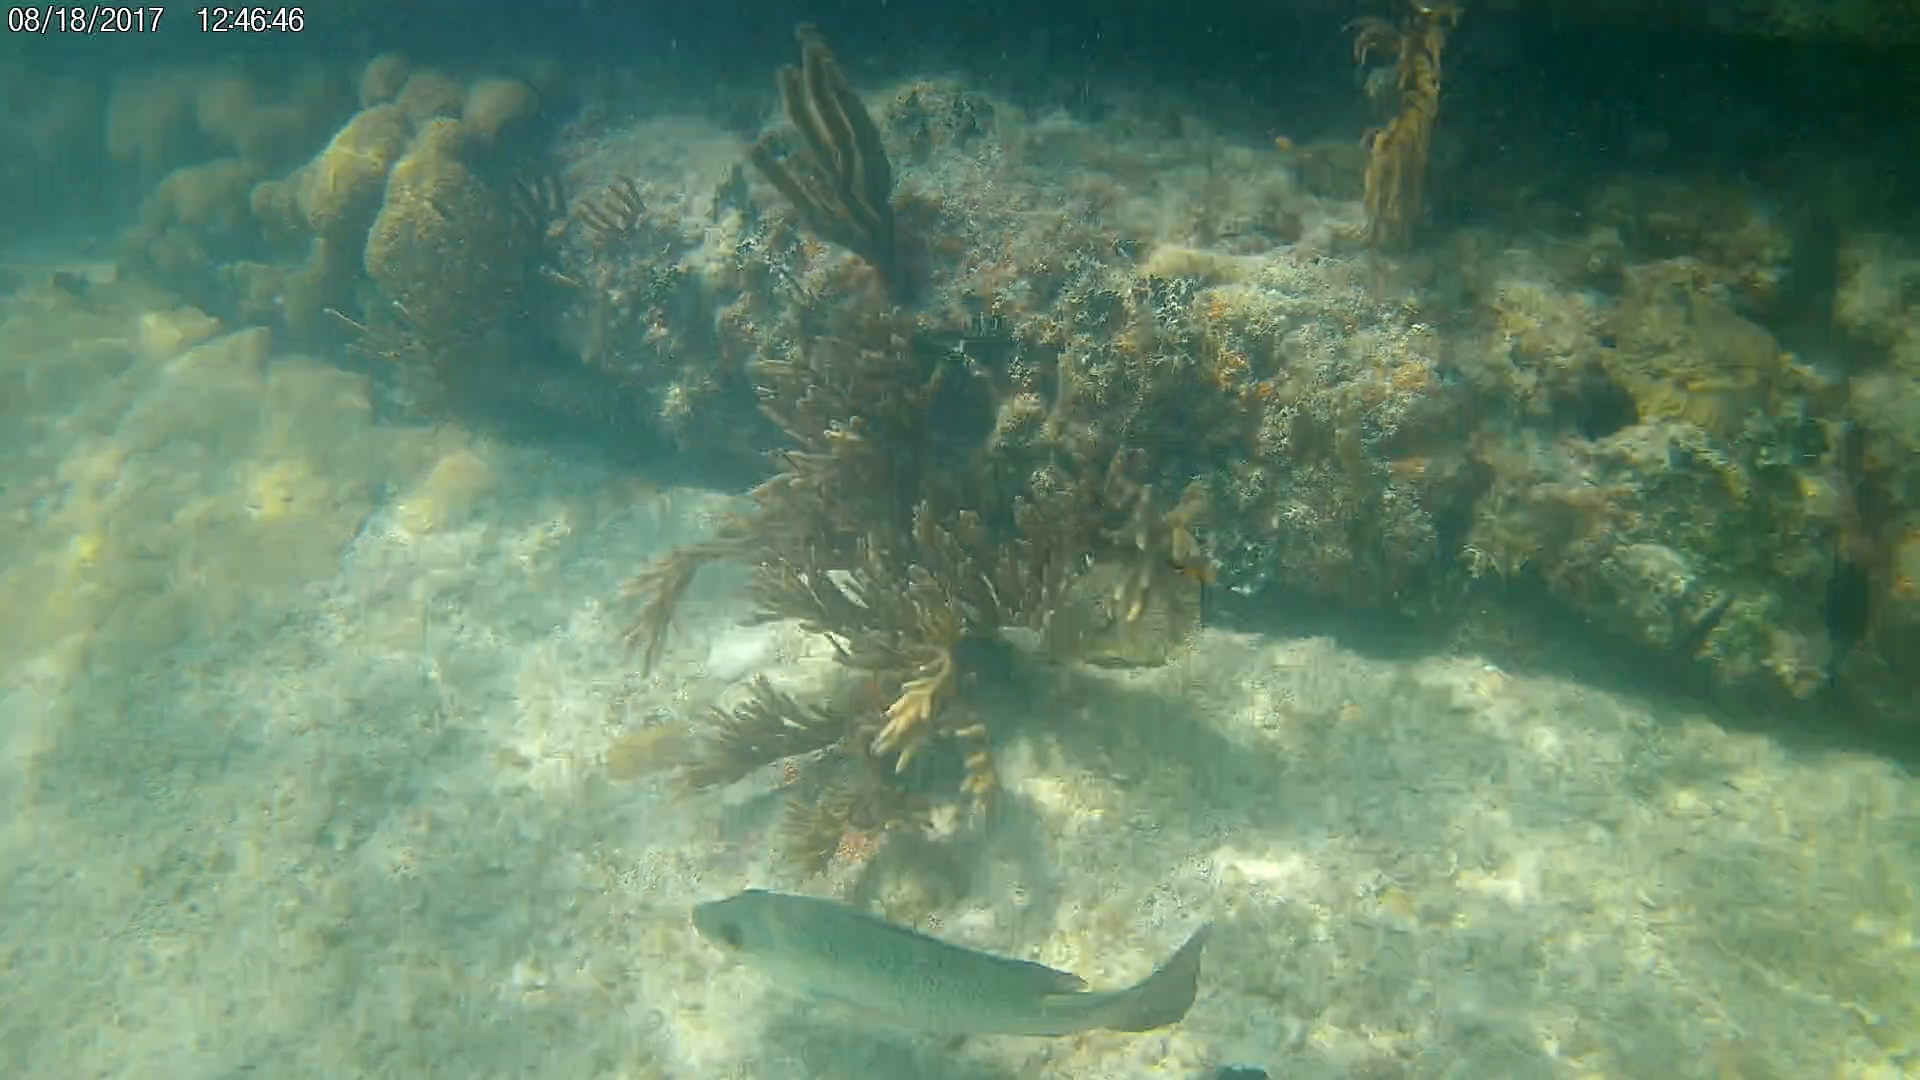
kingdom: Animalia
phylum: Chordata
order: Perciformes
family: Lutjanidae
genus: Lutjanus
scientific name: Lutjanus griseus
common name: Gray snapper
